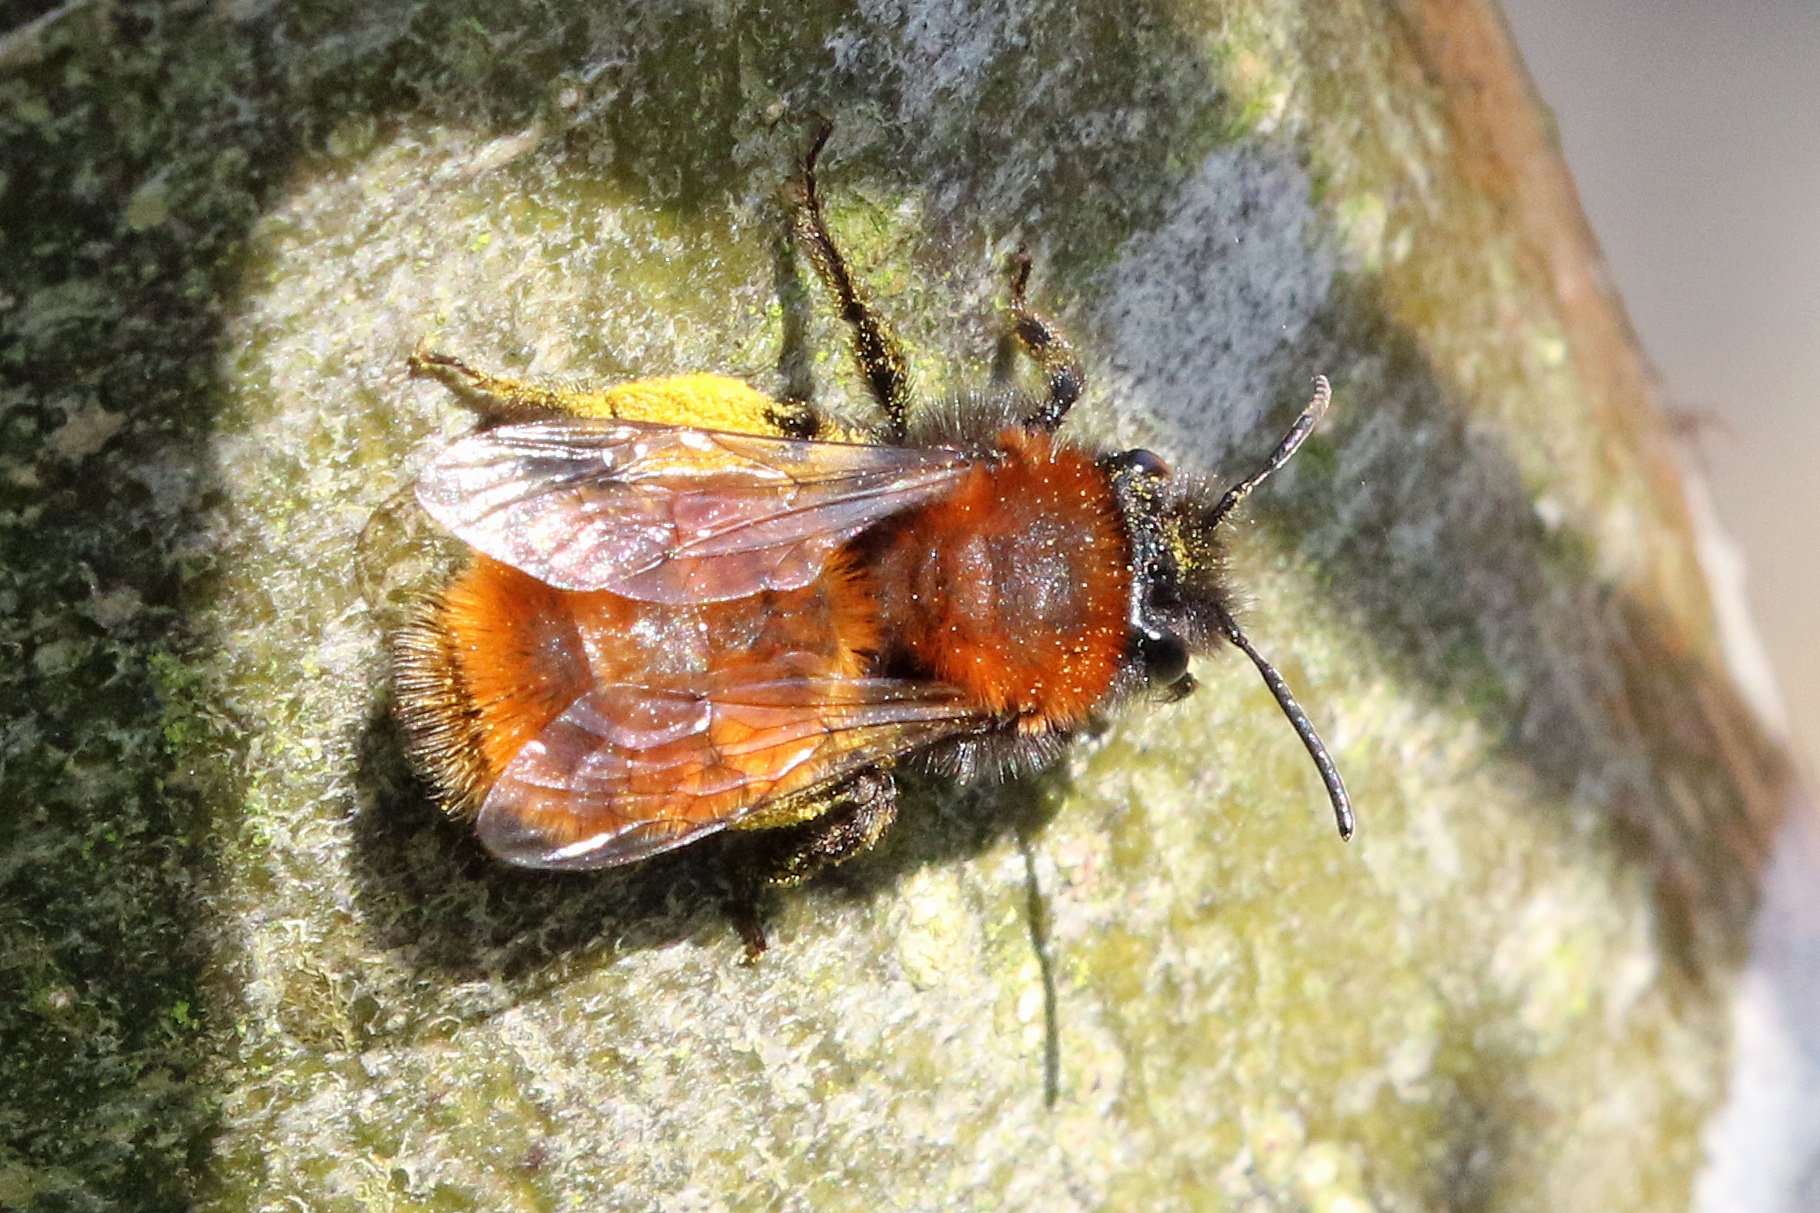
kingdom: Animalia
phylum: Arthropoda
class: Insecta
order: Hymenoptera
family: Andrenidae
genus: Andrena
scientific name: Andrena fulva
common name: Tawny mining bee
